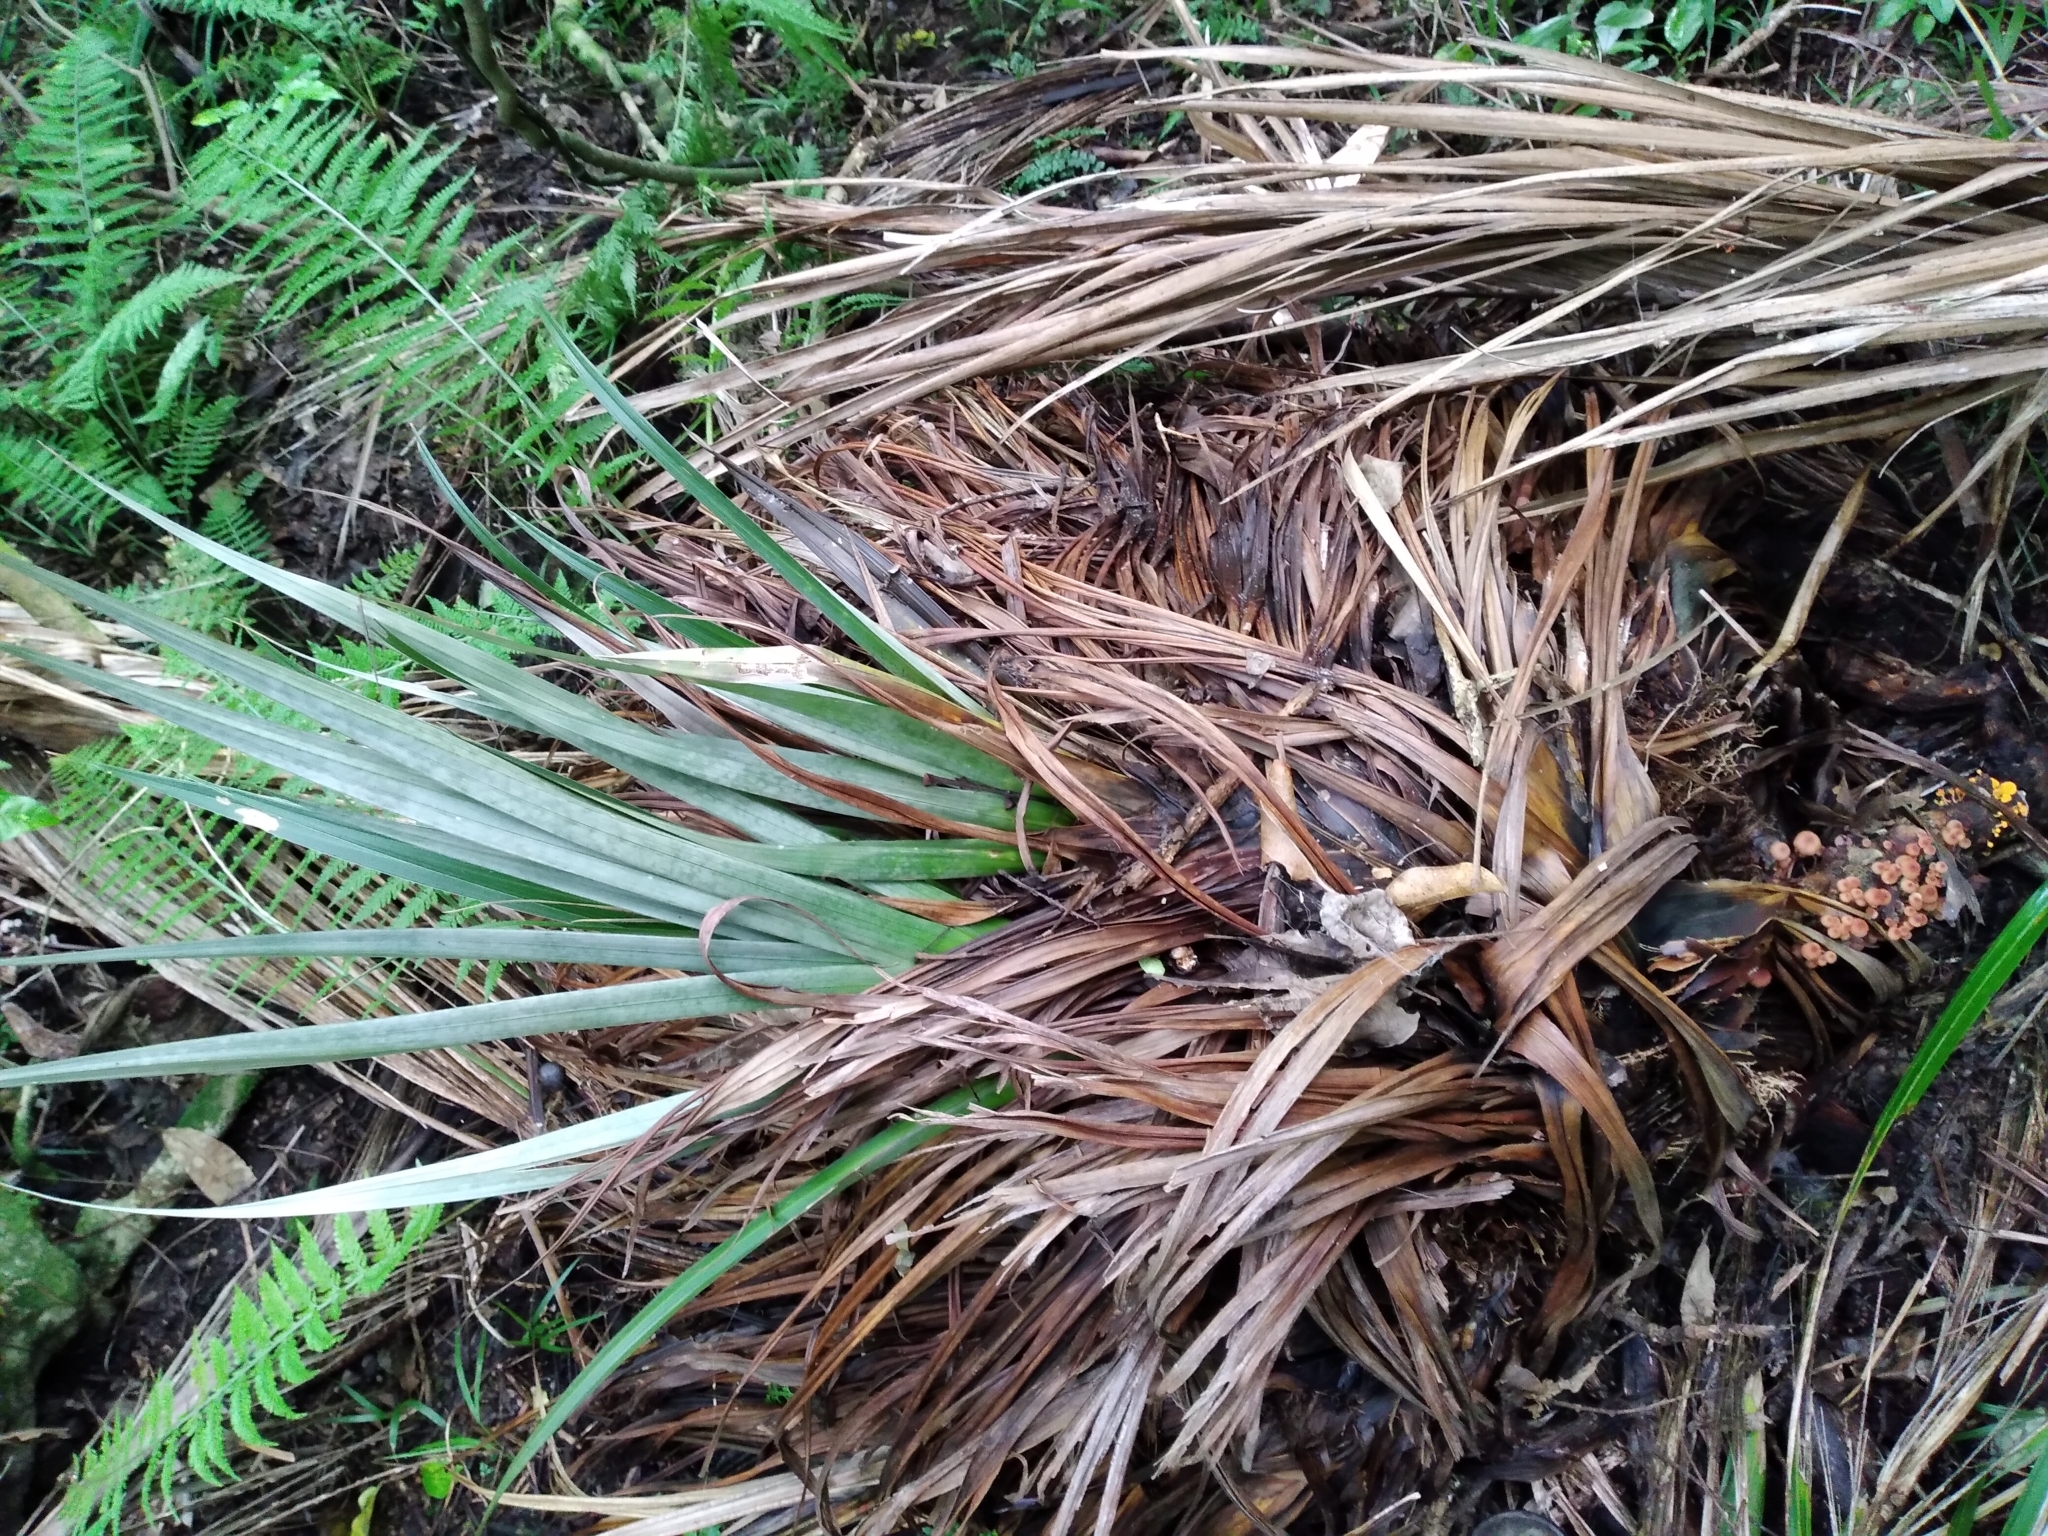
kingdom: Plantae
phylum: Tracheophyta
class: Liliopsida
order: Asparagales
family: Asteliaceae
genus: Astelia
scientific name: Astelia hastata
